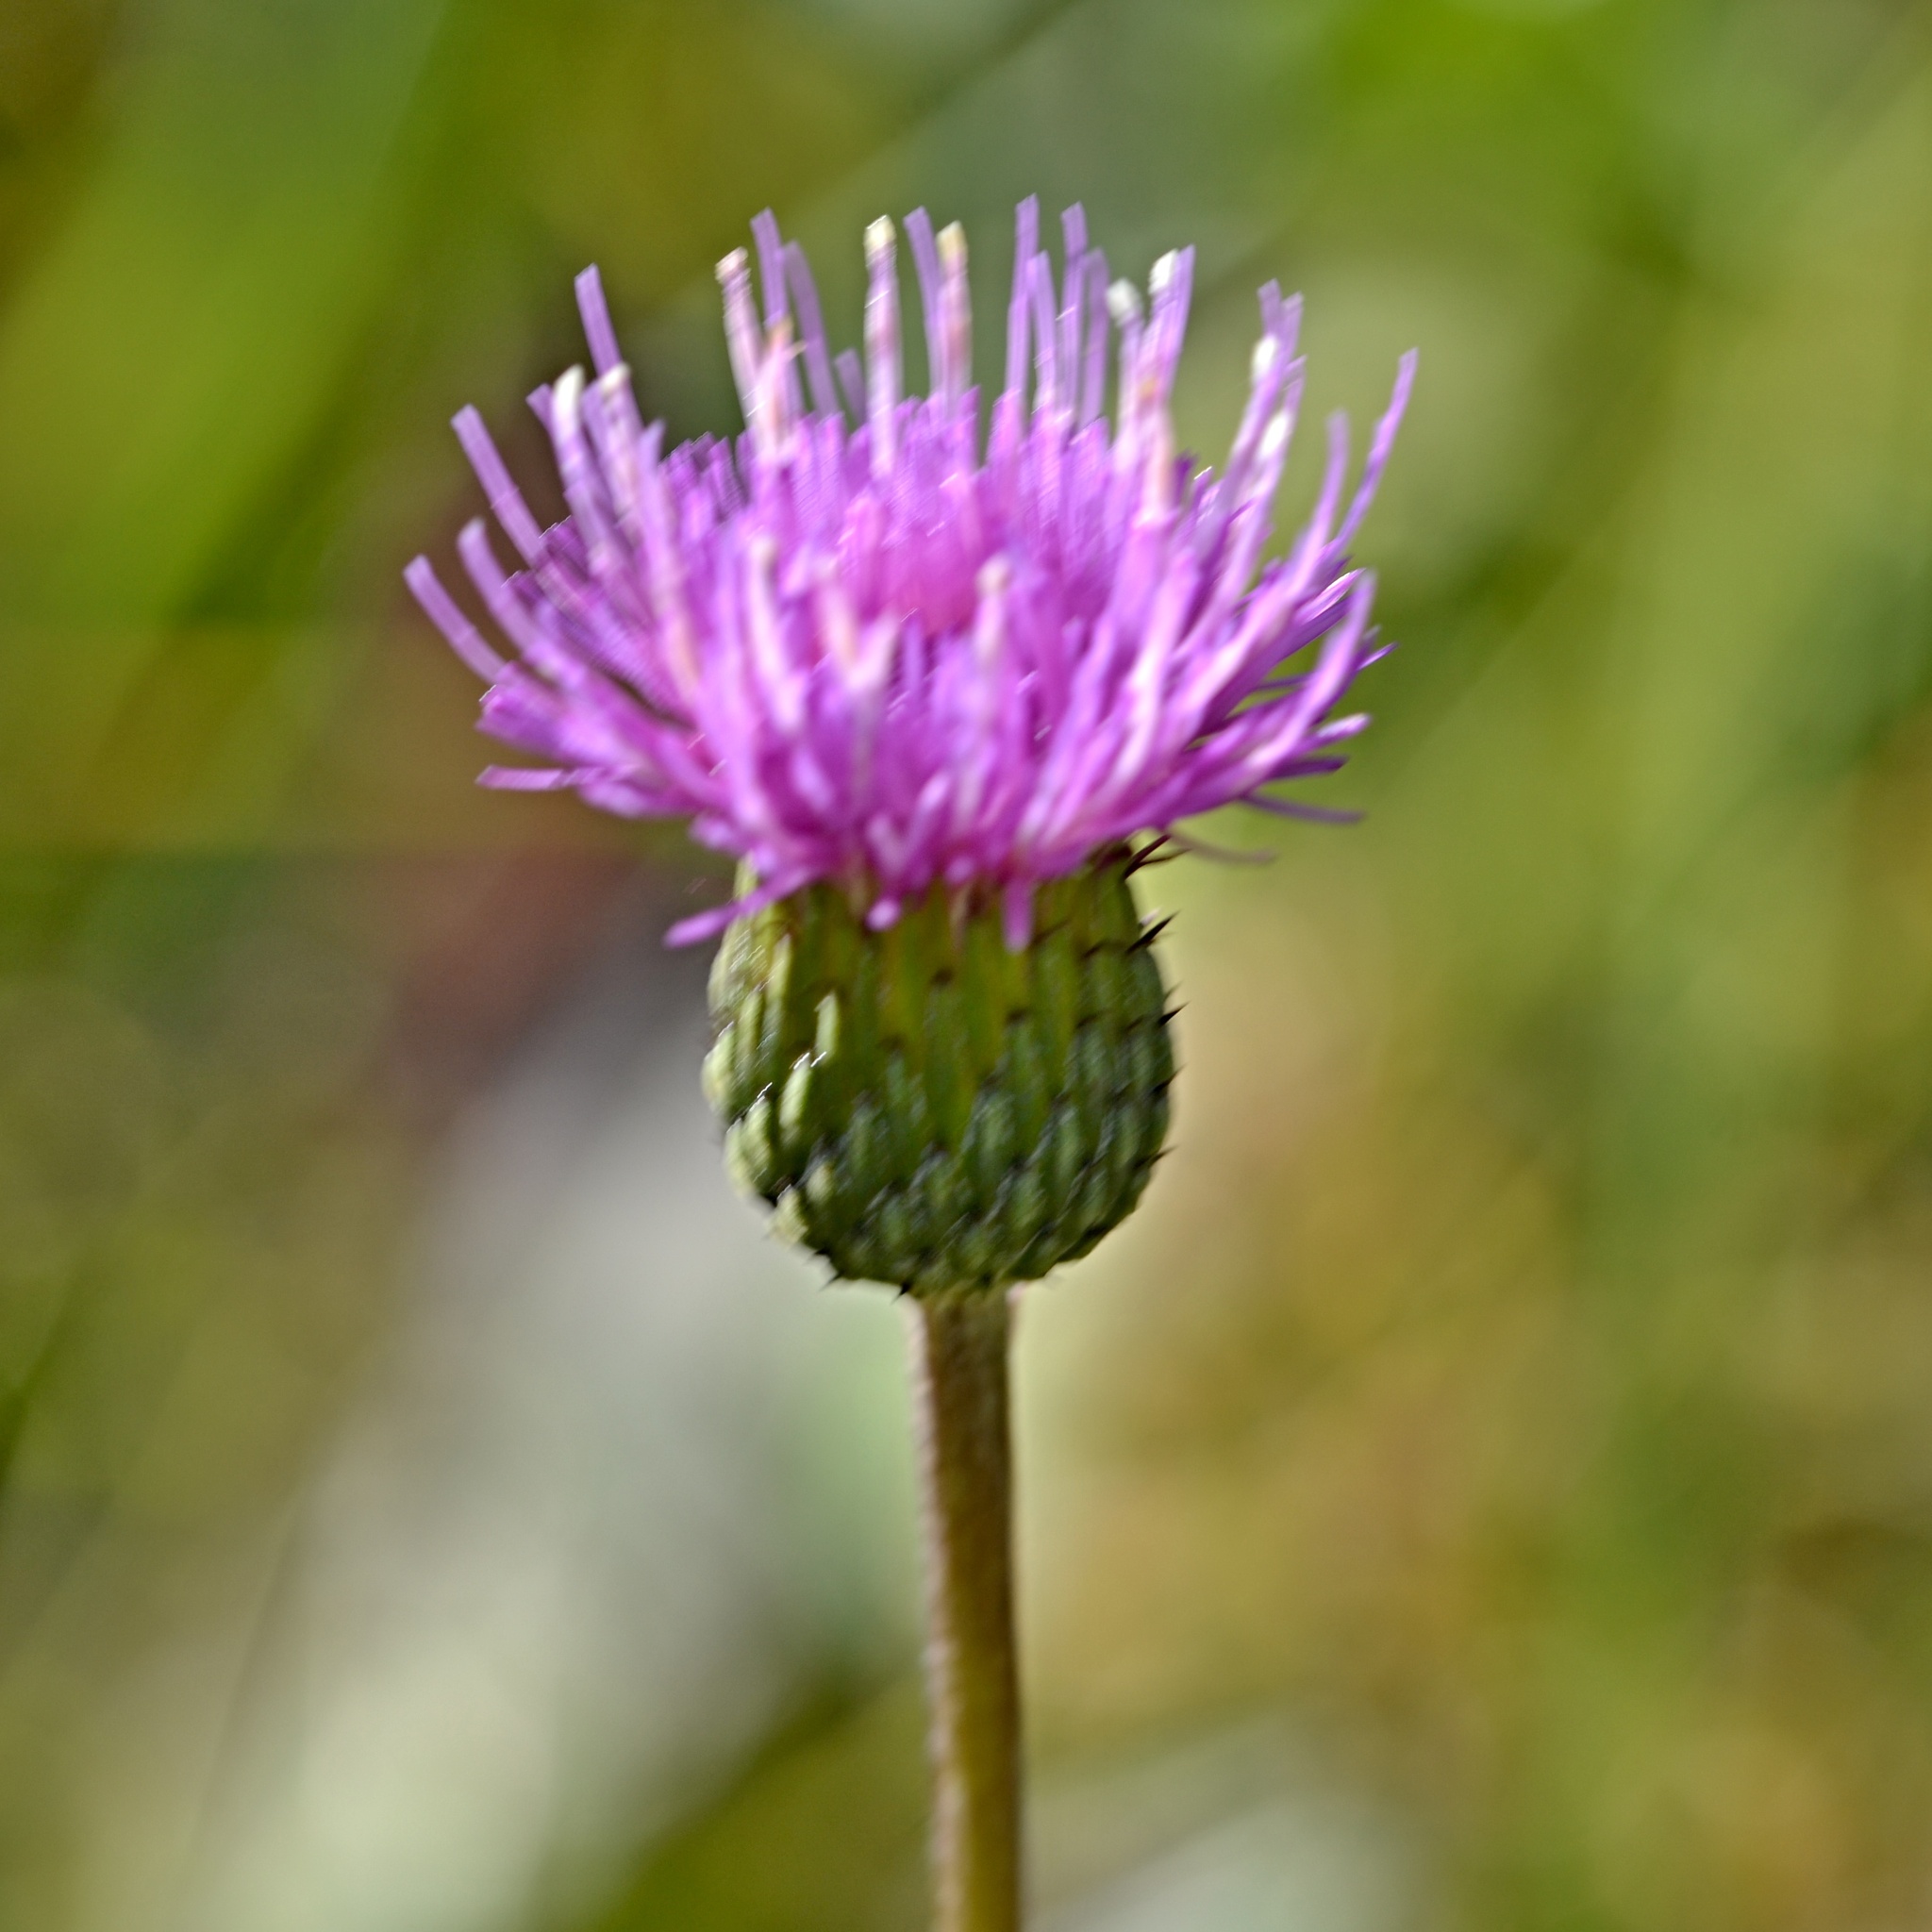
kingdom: Plantae
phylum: Tracheophyta
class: Magnoliopsida
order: Asterales
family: Asteraceae
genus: Cirsium
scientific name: Cirsium canum
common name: Queen anne's thistle
